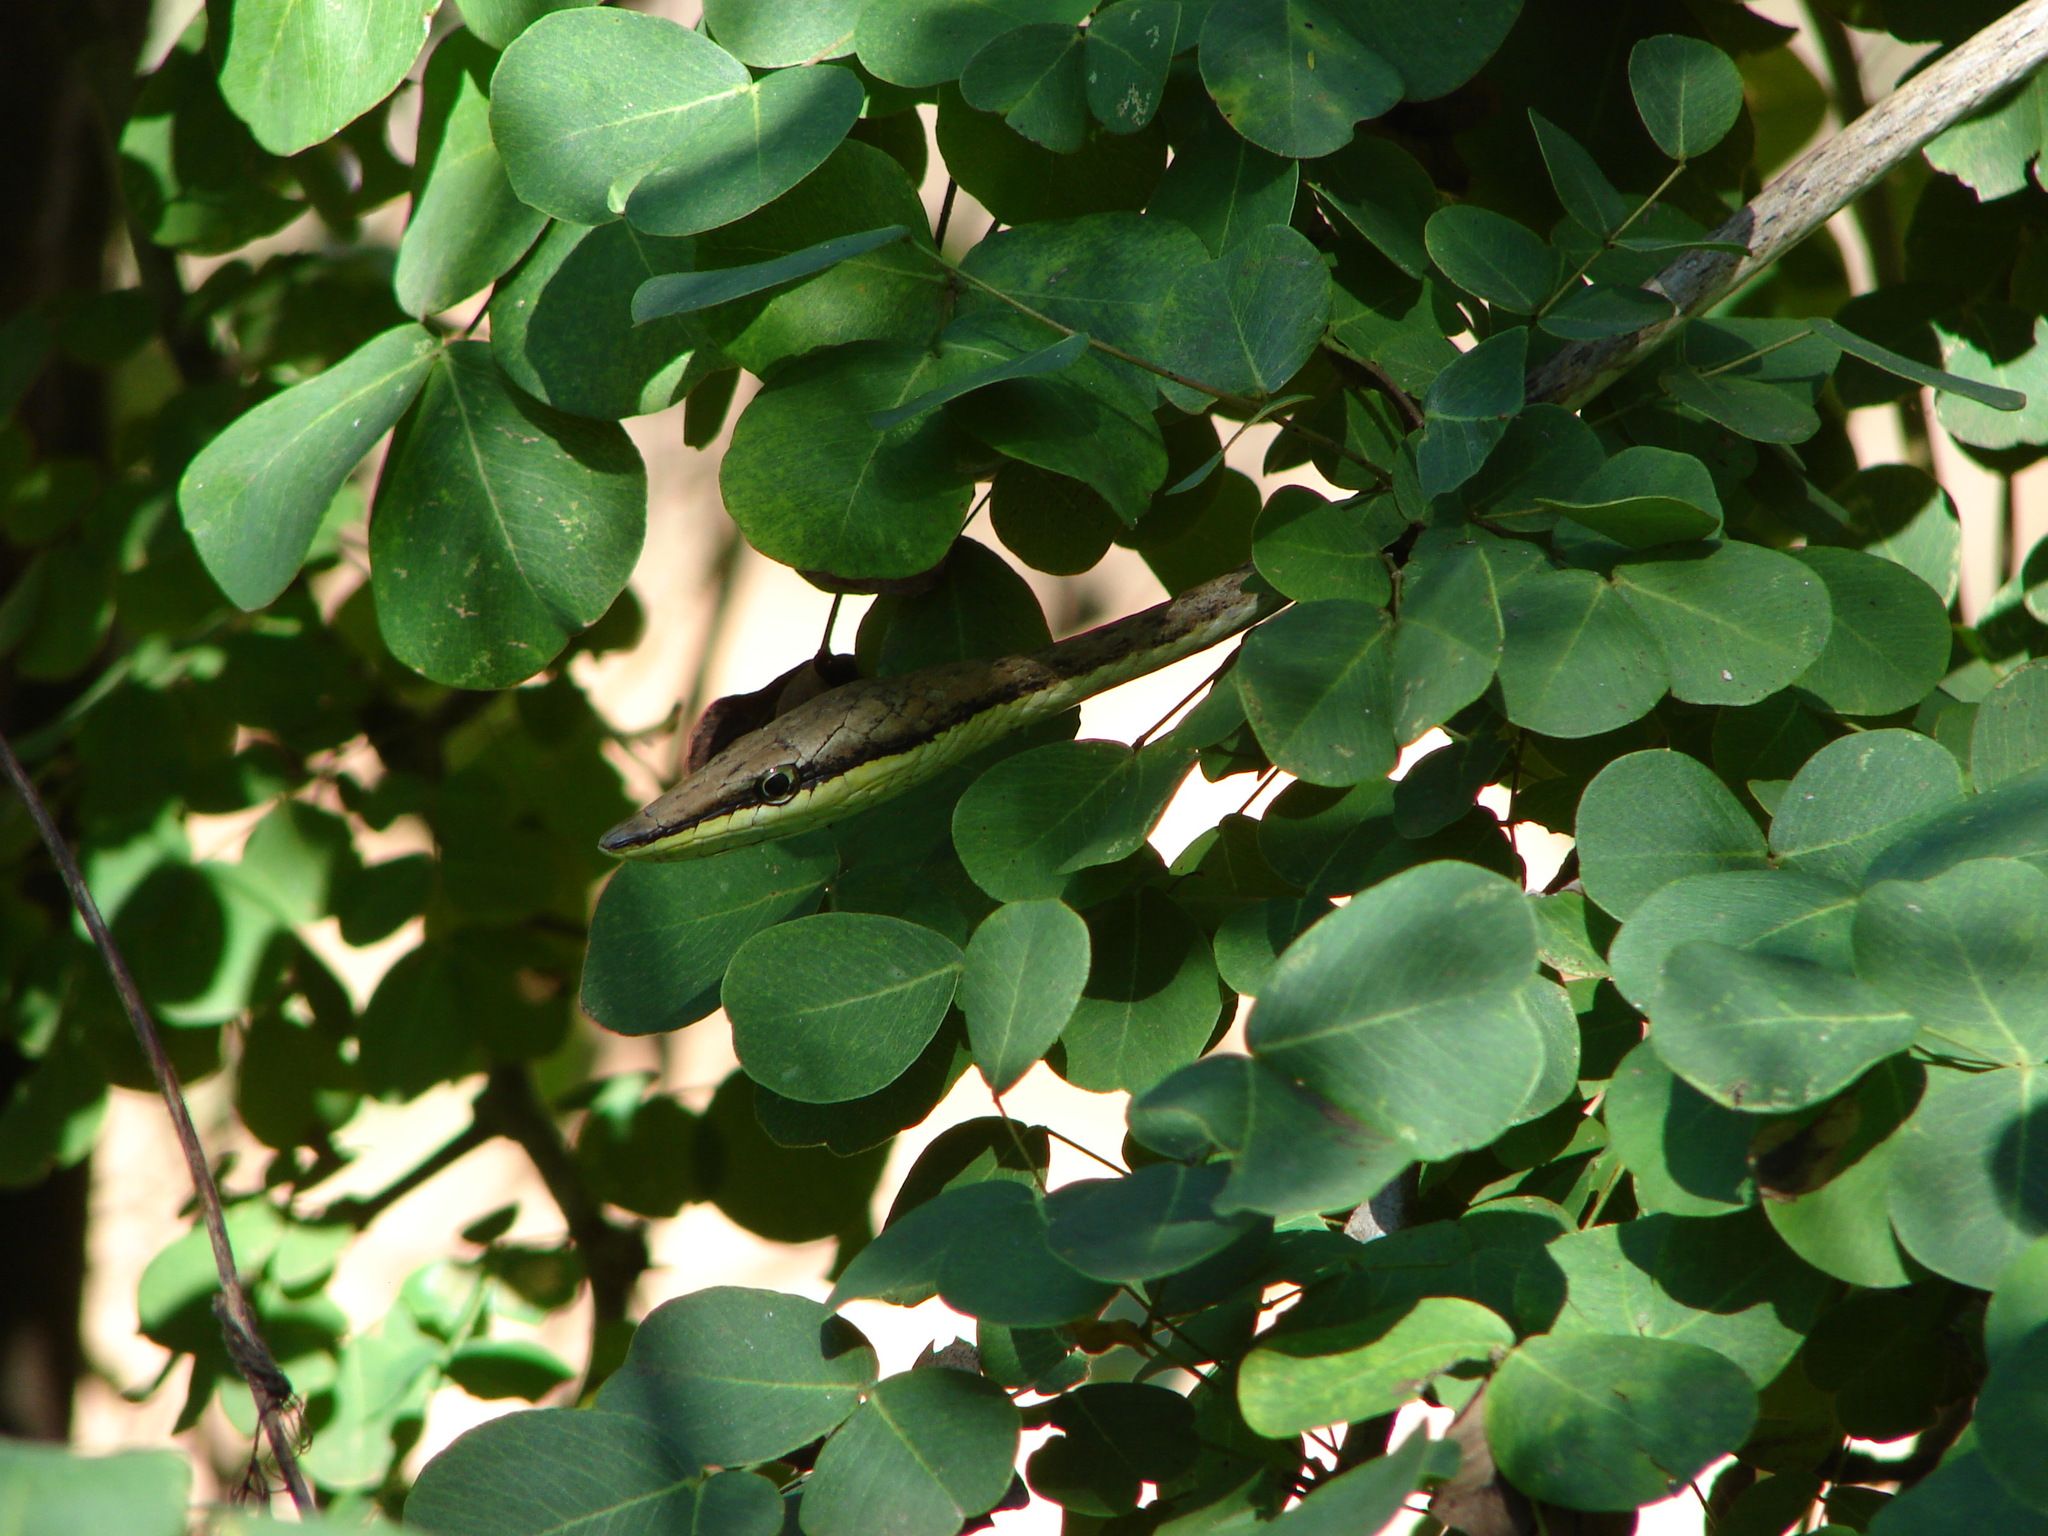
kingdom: Animalia
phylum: Chordata
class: Squamata
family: Colubridae
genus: Oxybelis
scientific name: Oxybelis microphthalmus
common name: Thrornscrub vine snake
